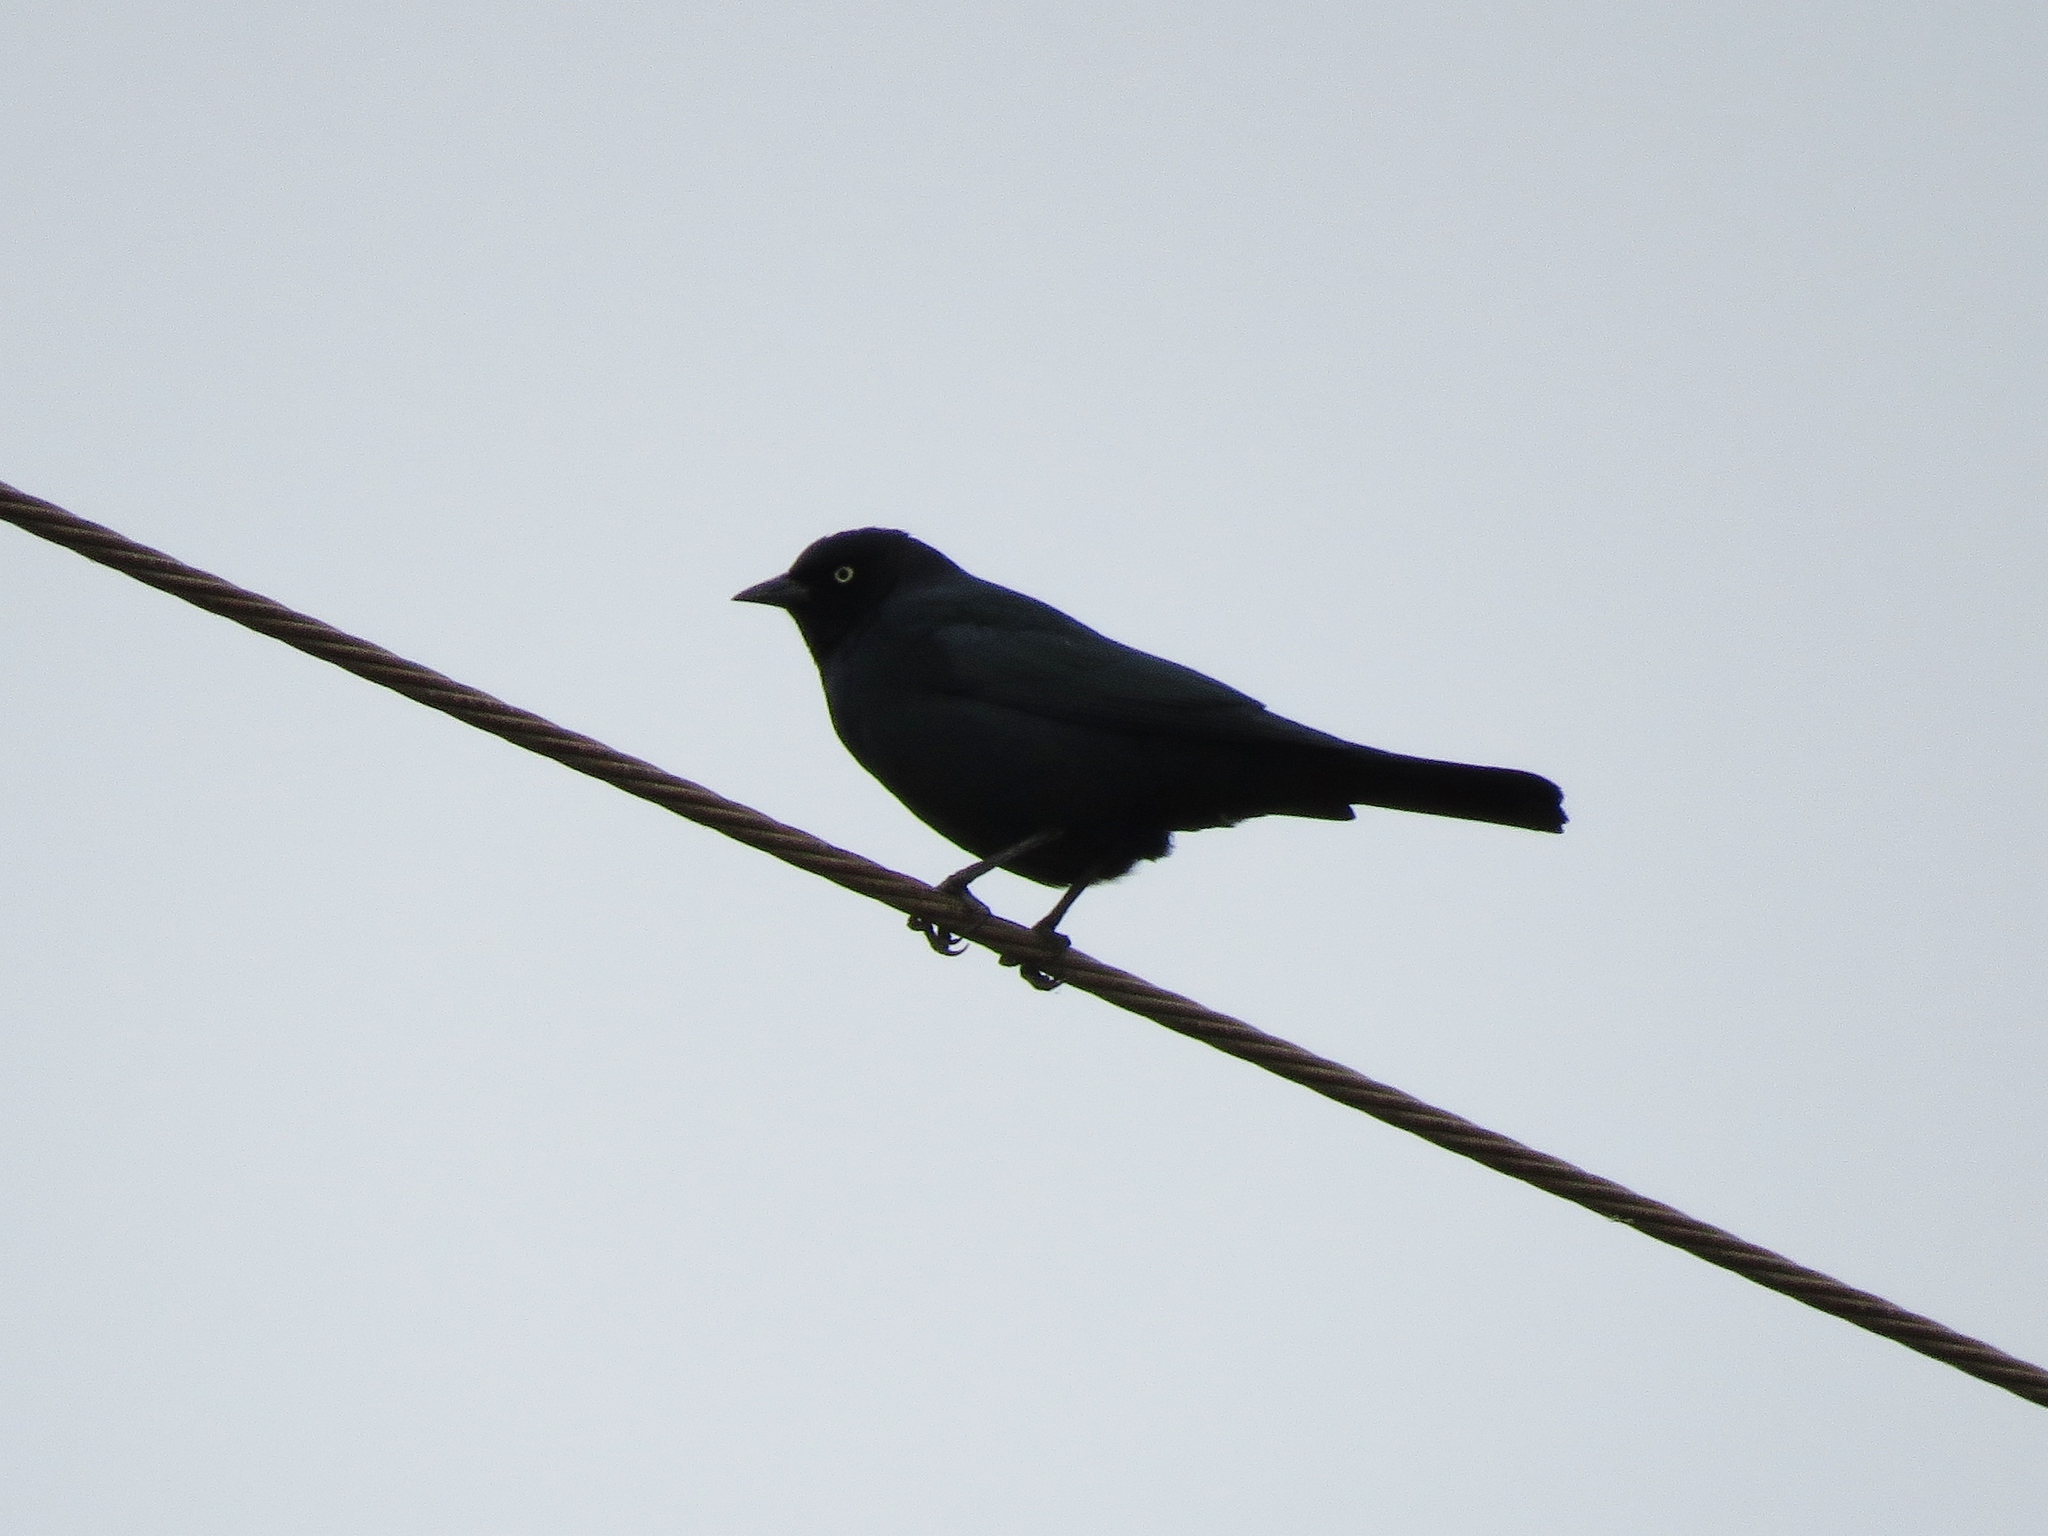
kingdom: Animalia
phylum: Chordata
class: Aves
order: Passeriformes
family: Icteridae
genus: Euphagus
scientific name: Euphagus cyanocephalus
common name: Brewer's blackbird
